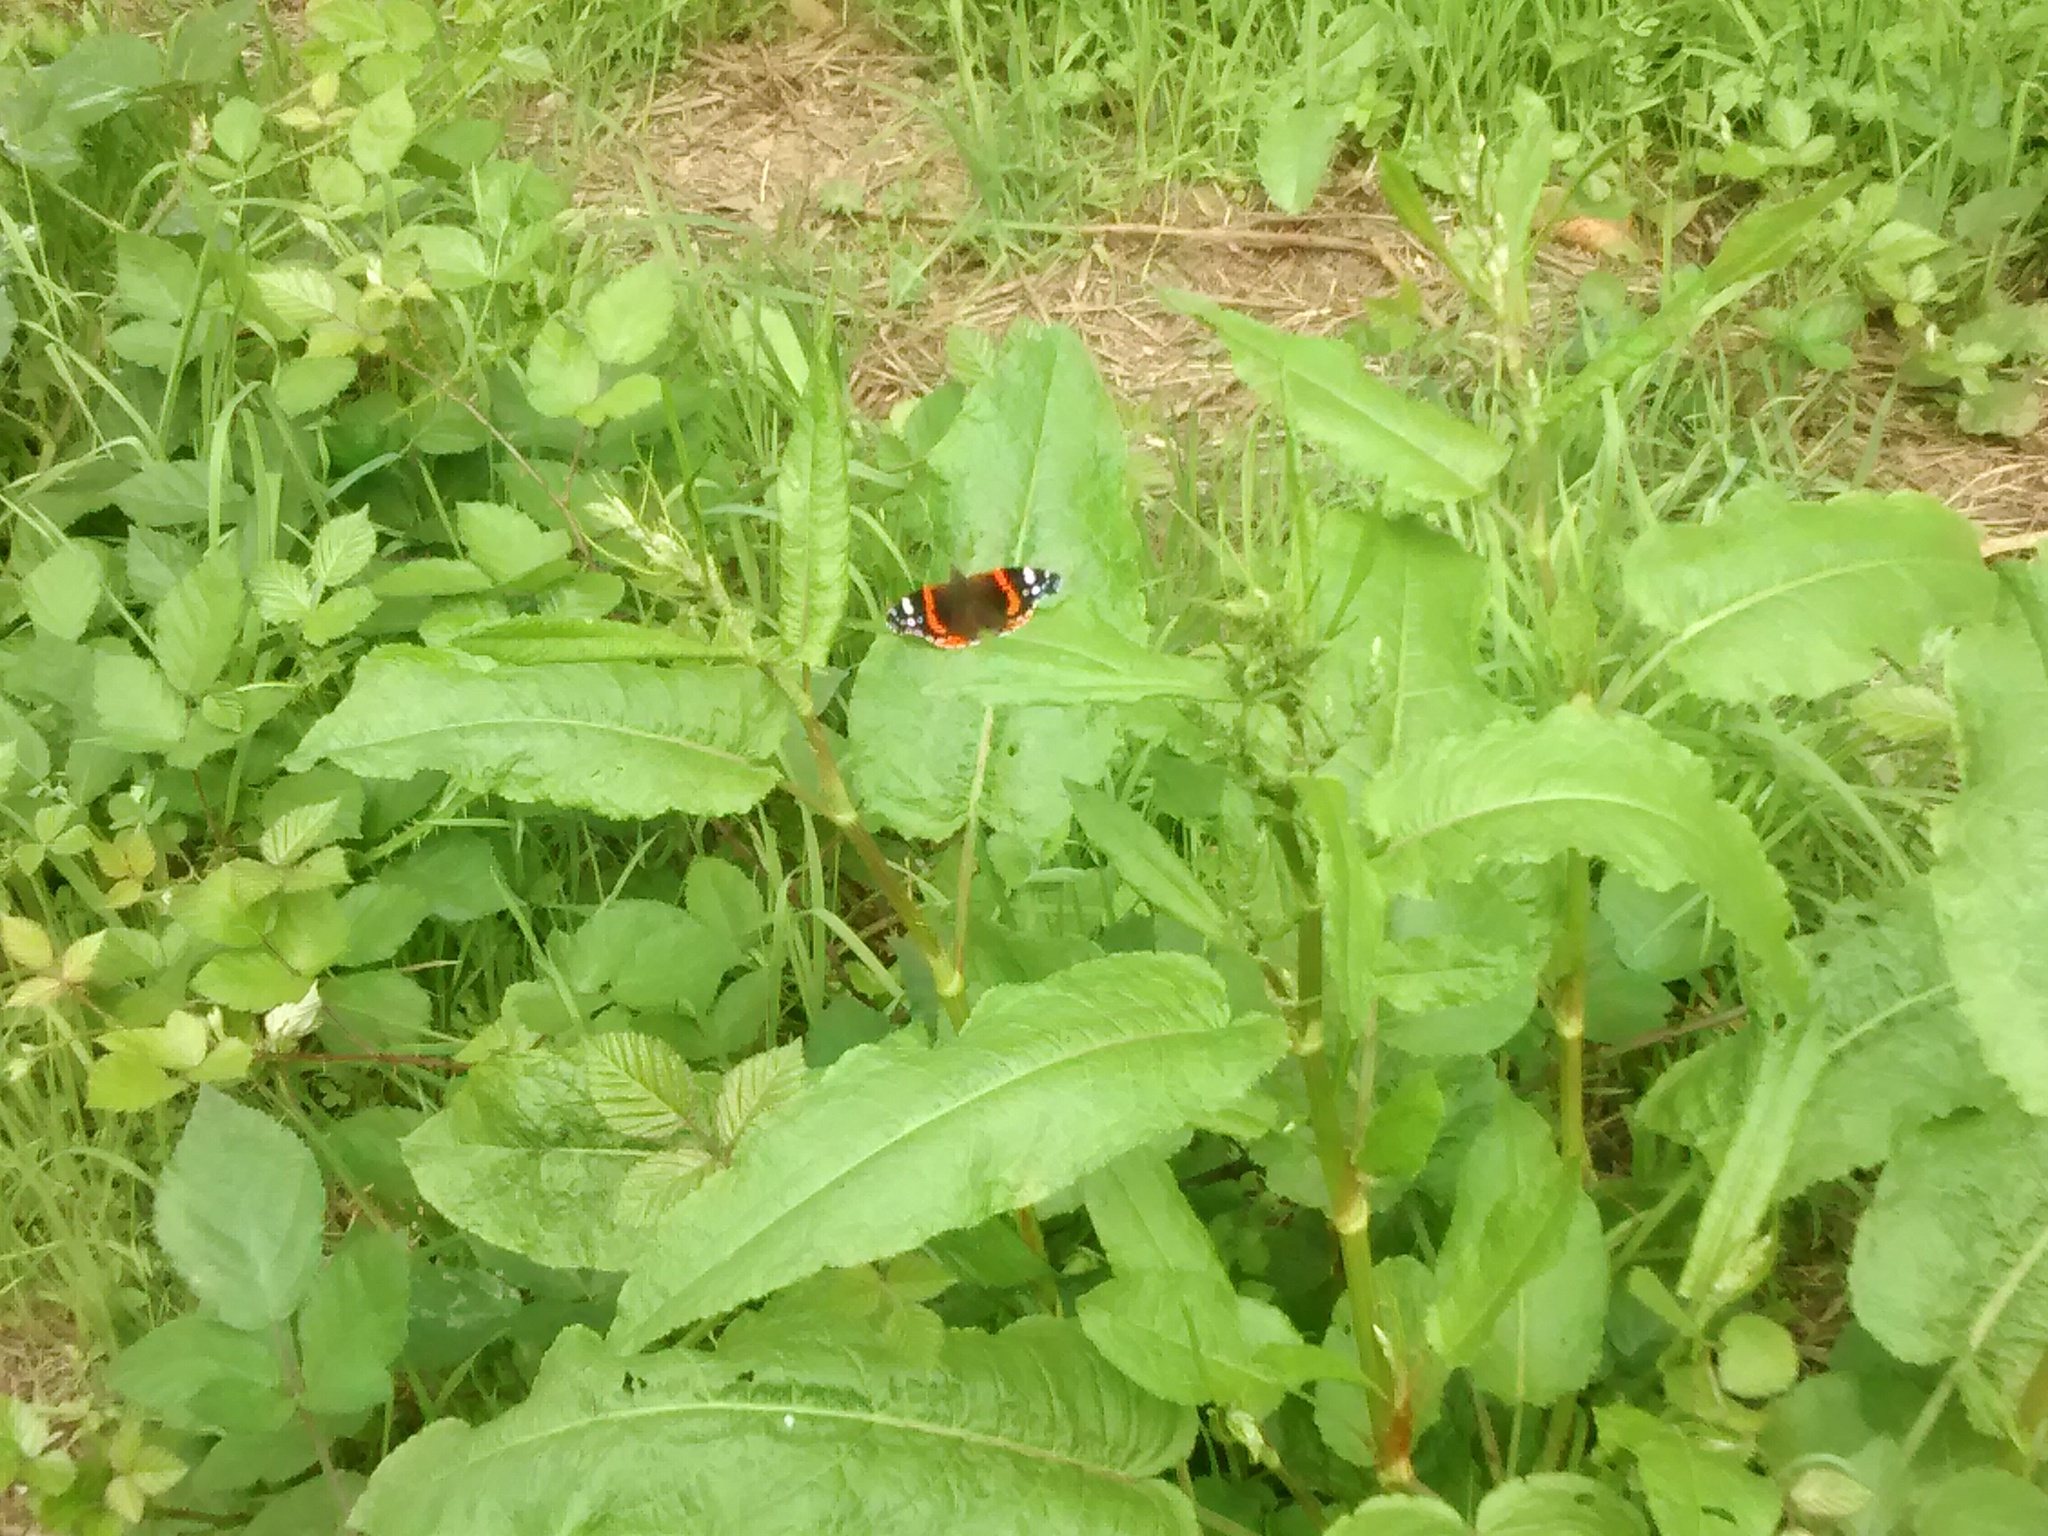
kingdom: Animalia
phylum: Arthropoda
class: Insecta
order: Lepidoptera
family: Nymphalidae
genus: Vanessa
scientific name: Vanessa atalanta
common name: Red admiral
